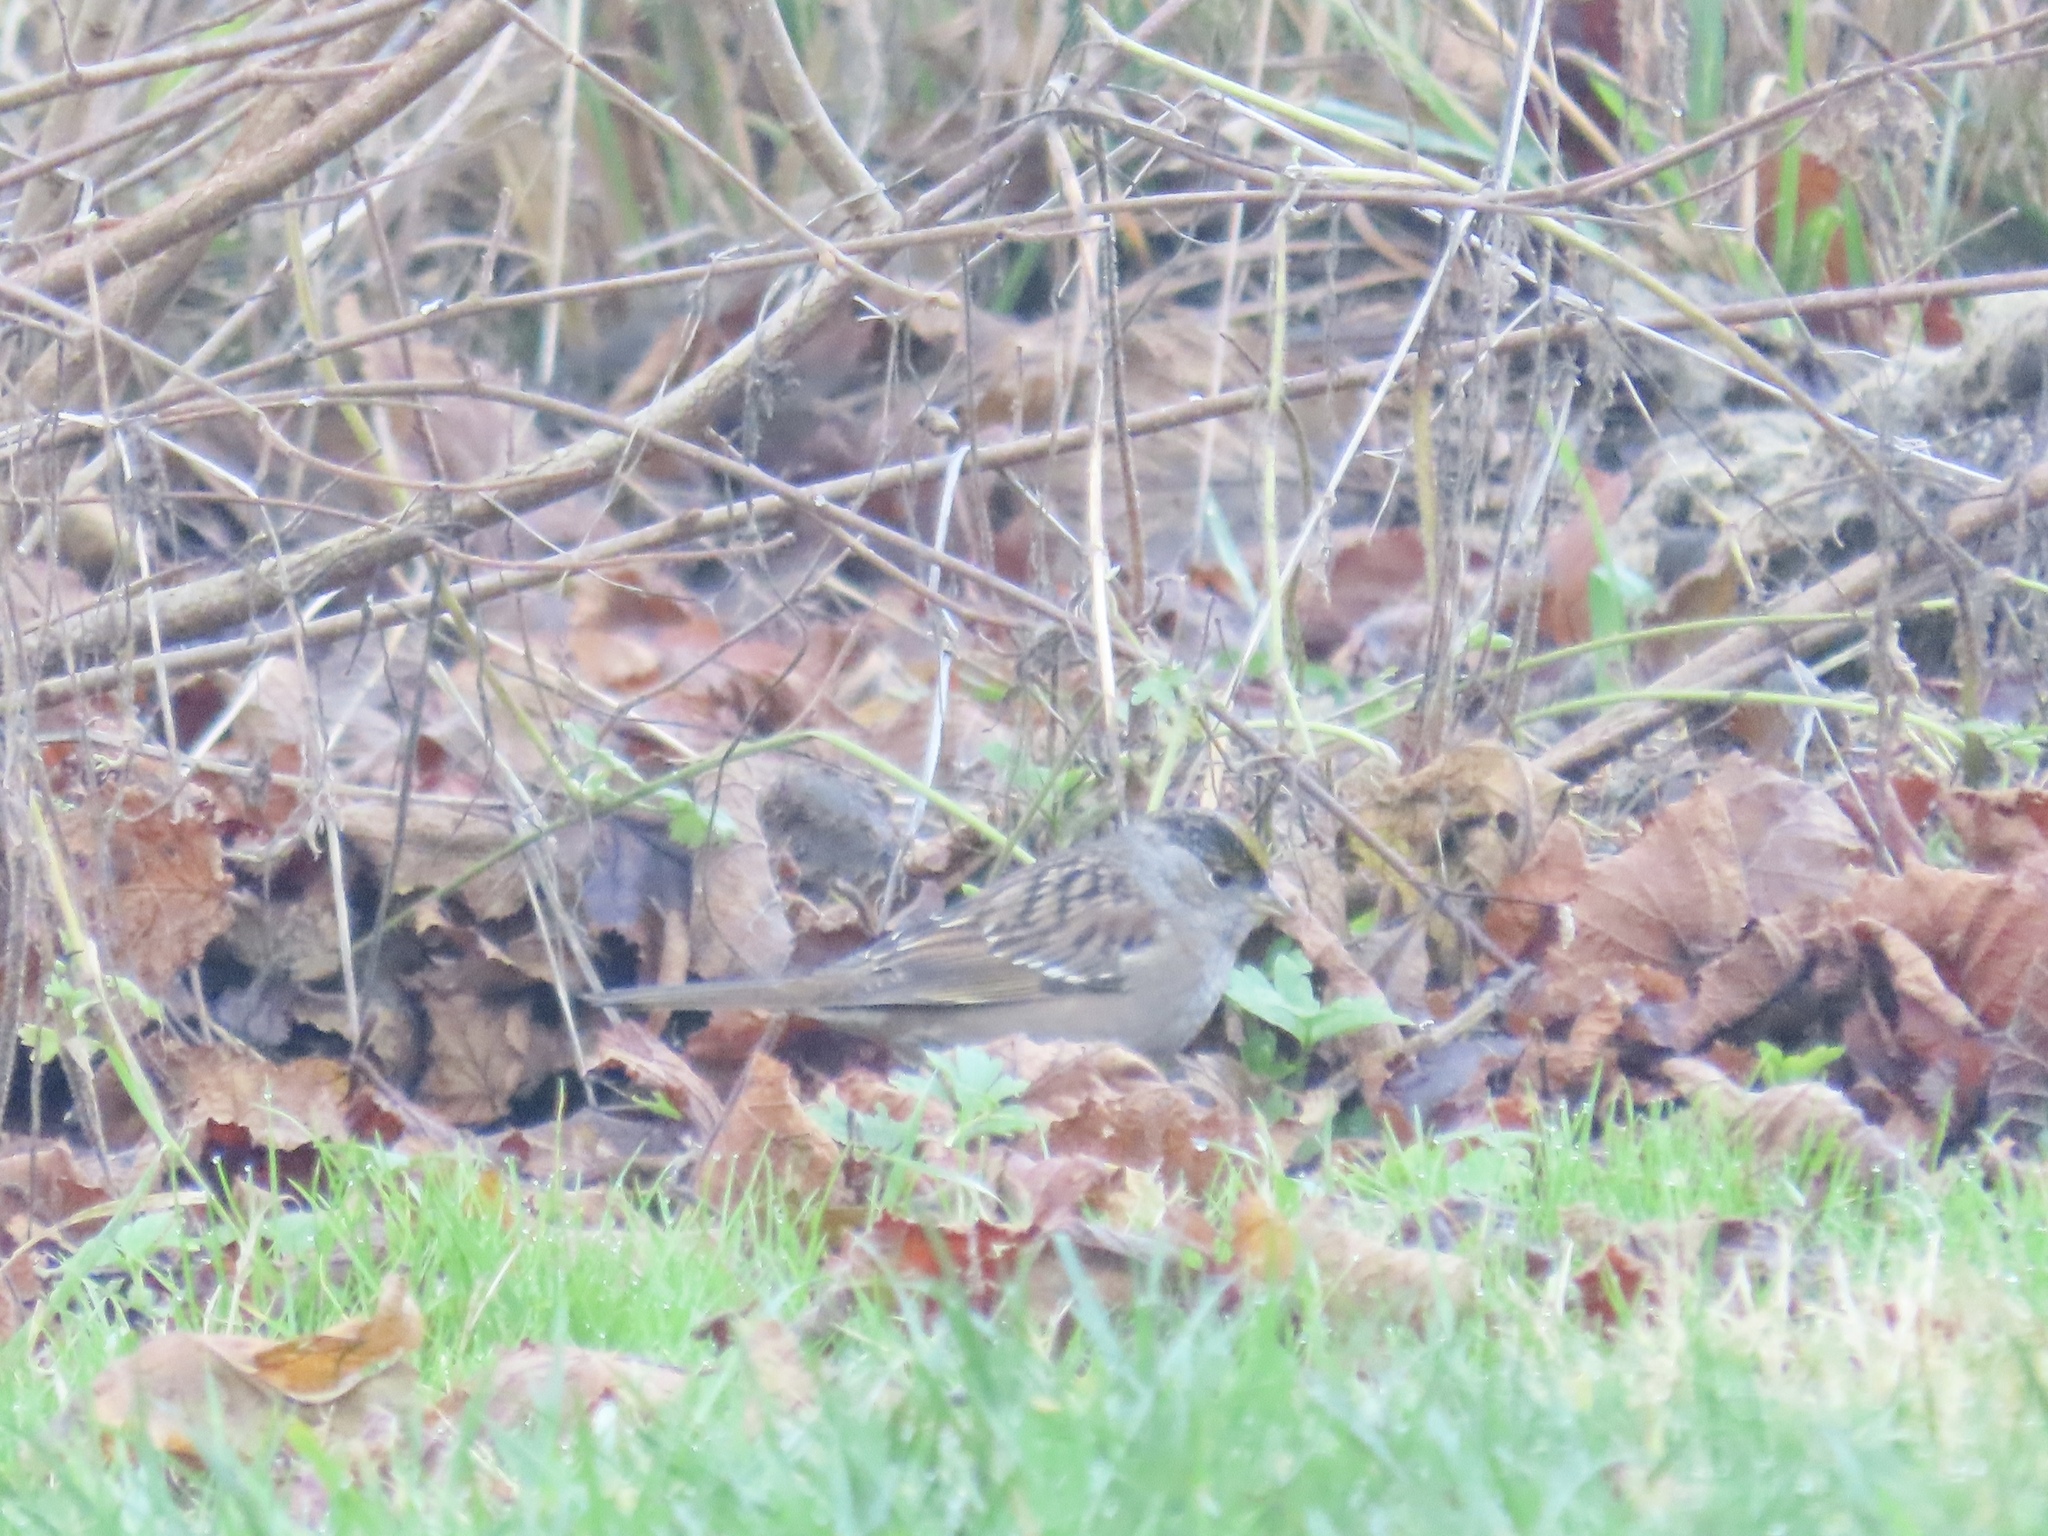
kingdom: Animalia
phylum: Chordata
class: Aves
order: Passeriformes
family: Passerellidae
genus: Zonotrichia
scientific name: Zonotrichia atricapilla
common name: Golden-crowned sparrow
